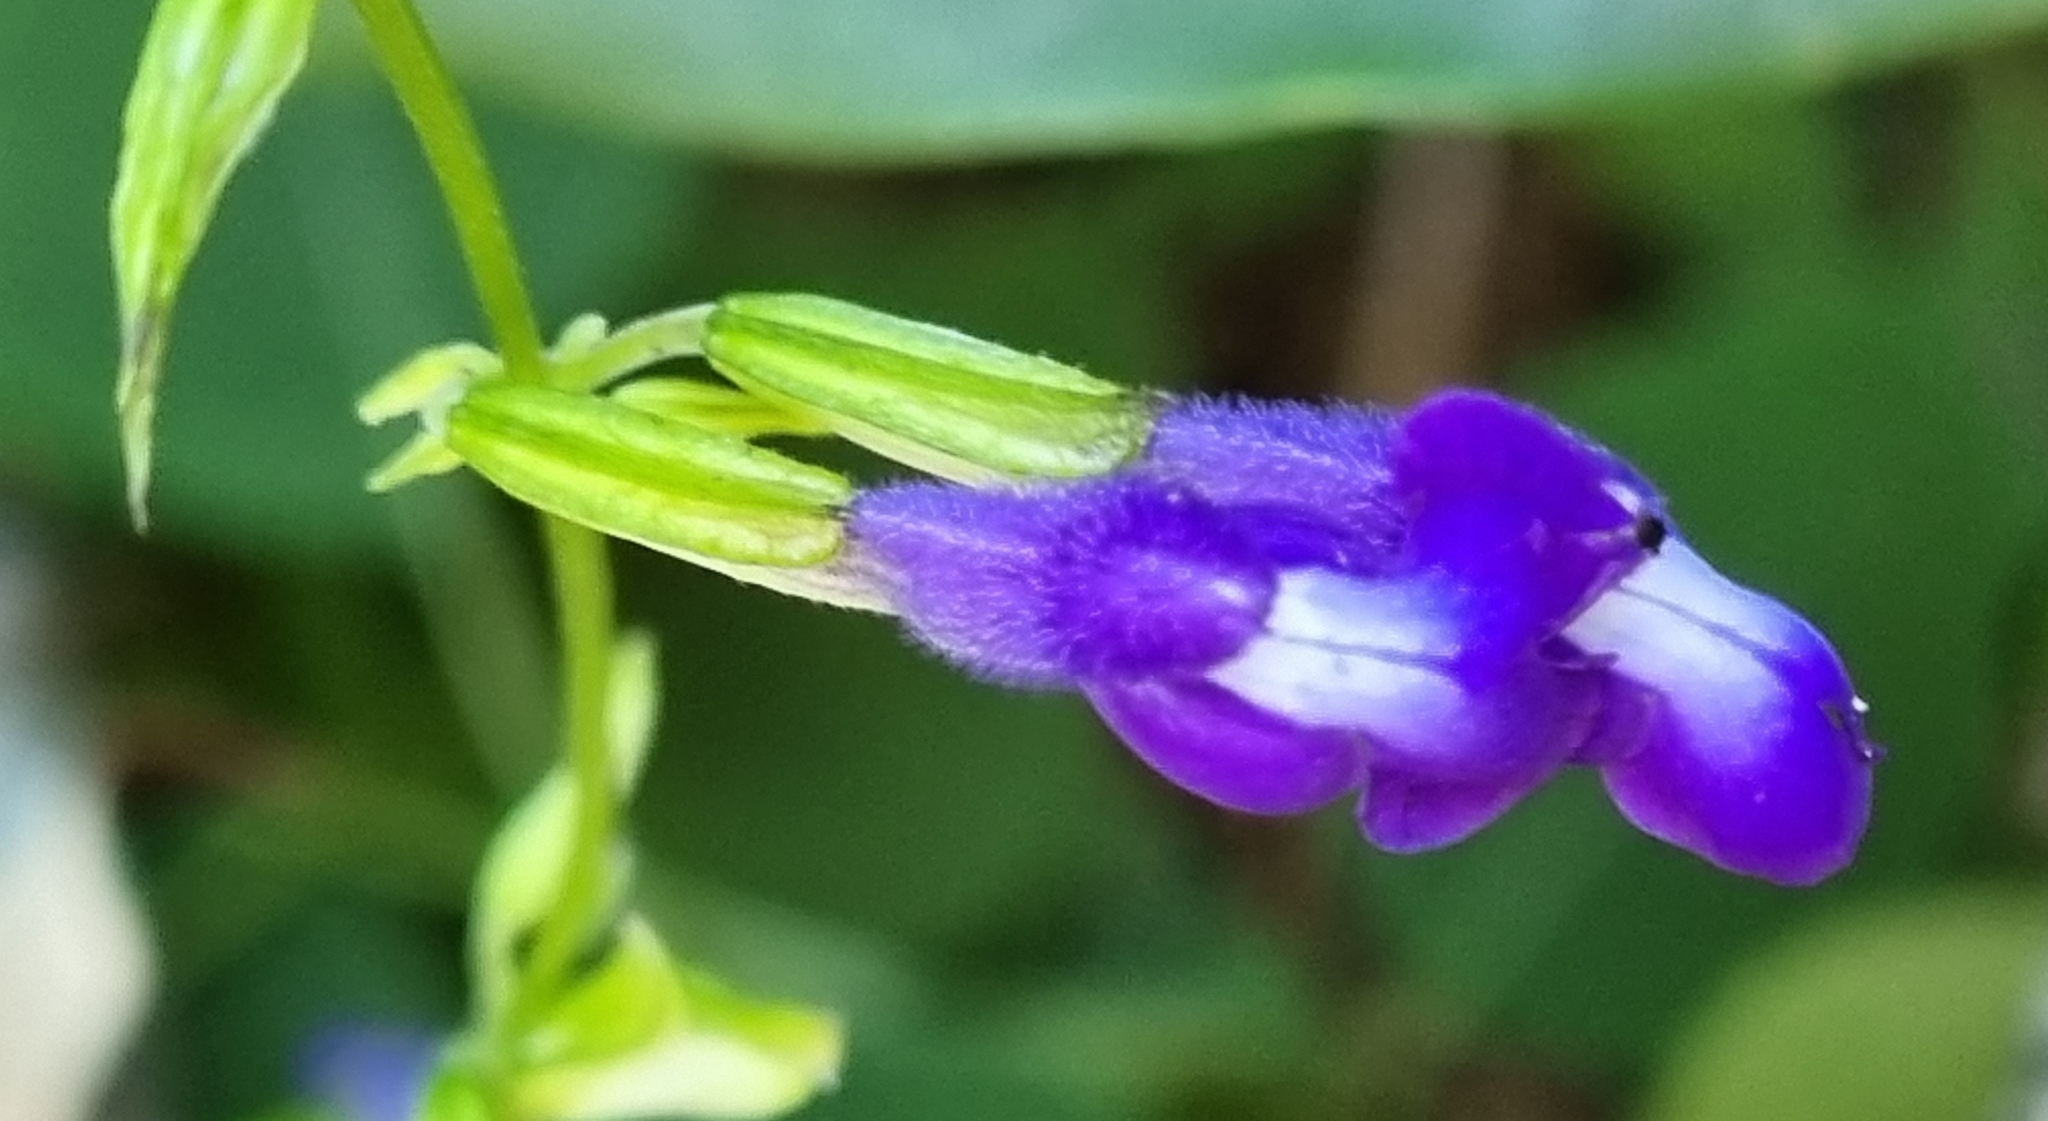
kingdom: Plantae
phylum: Tracheophyta
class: Magnoliopsida
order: Lamiales
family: Lamiaceae
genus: Salvia
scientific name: Salvia caudata
